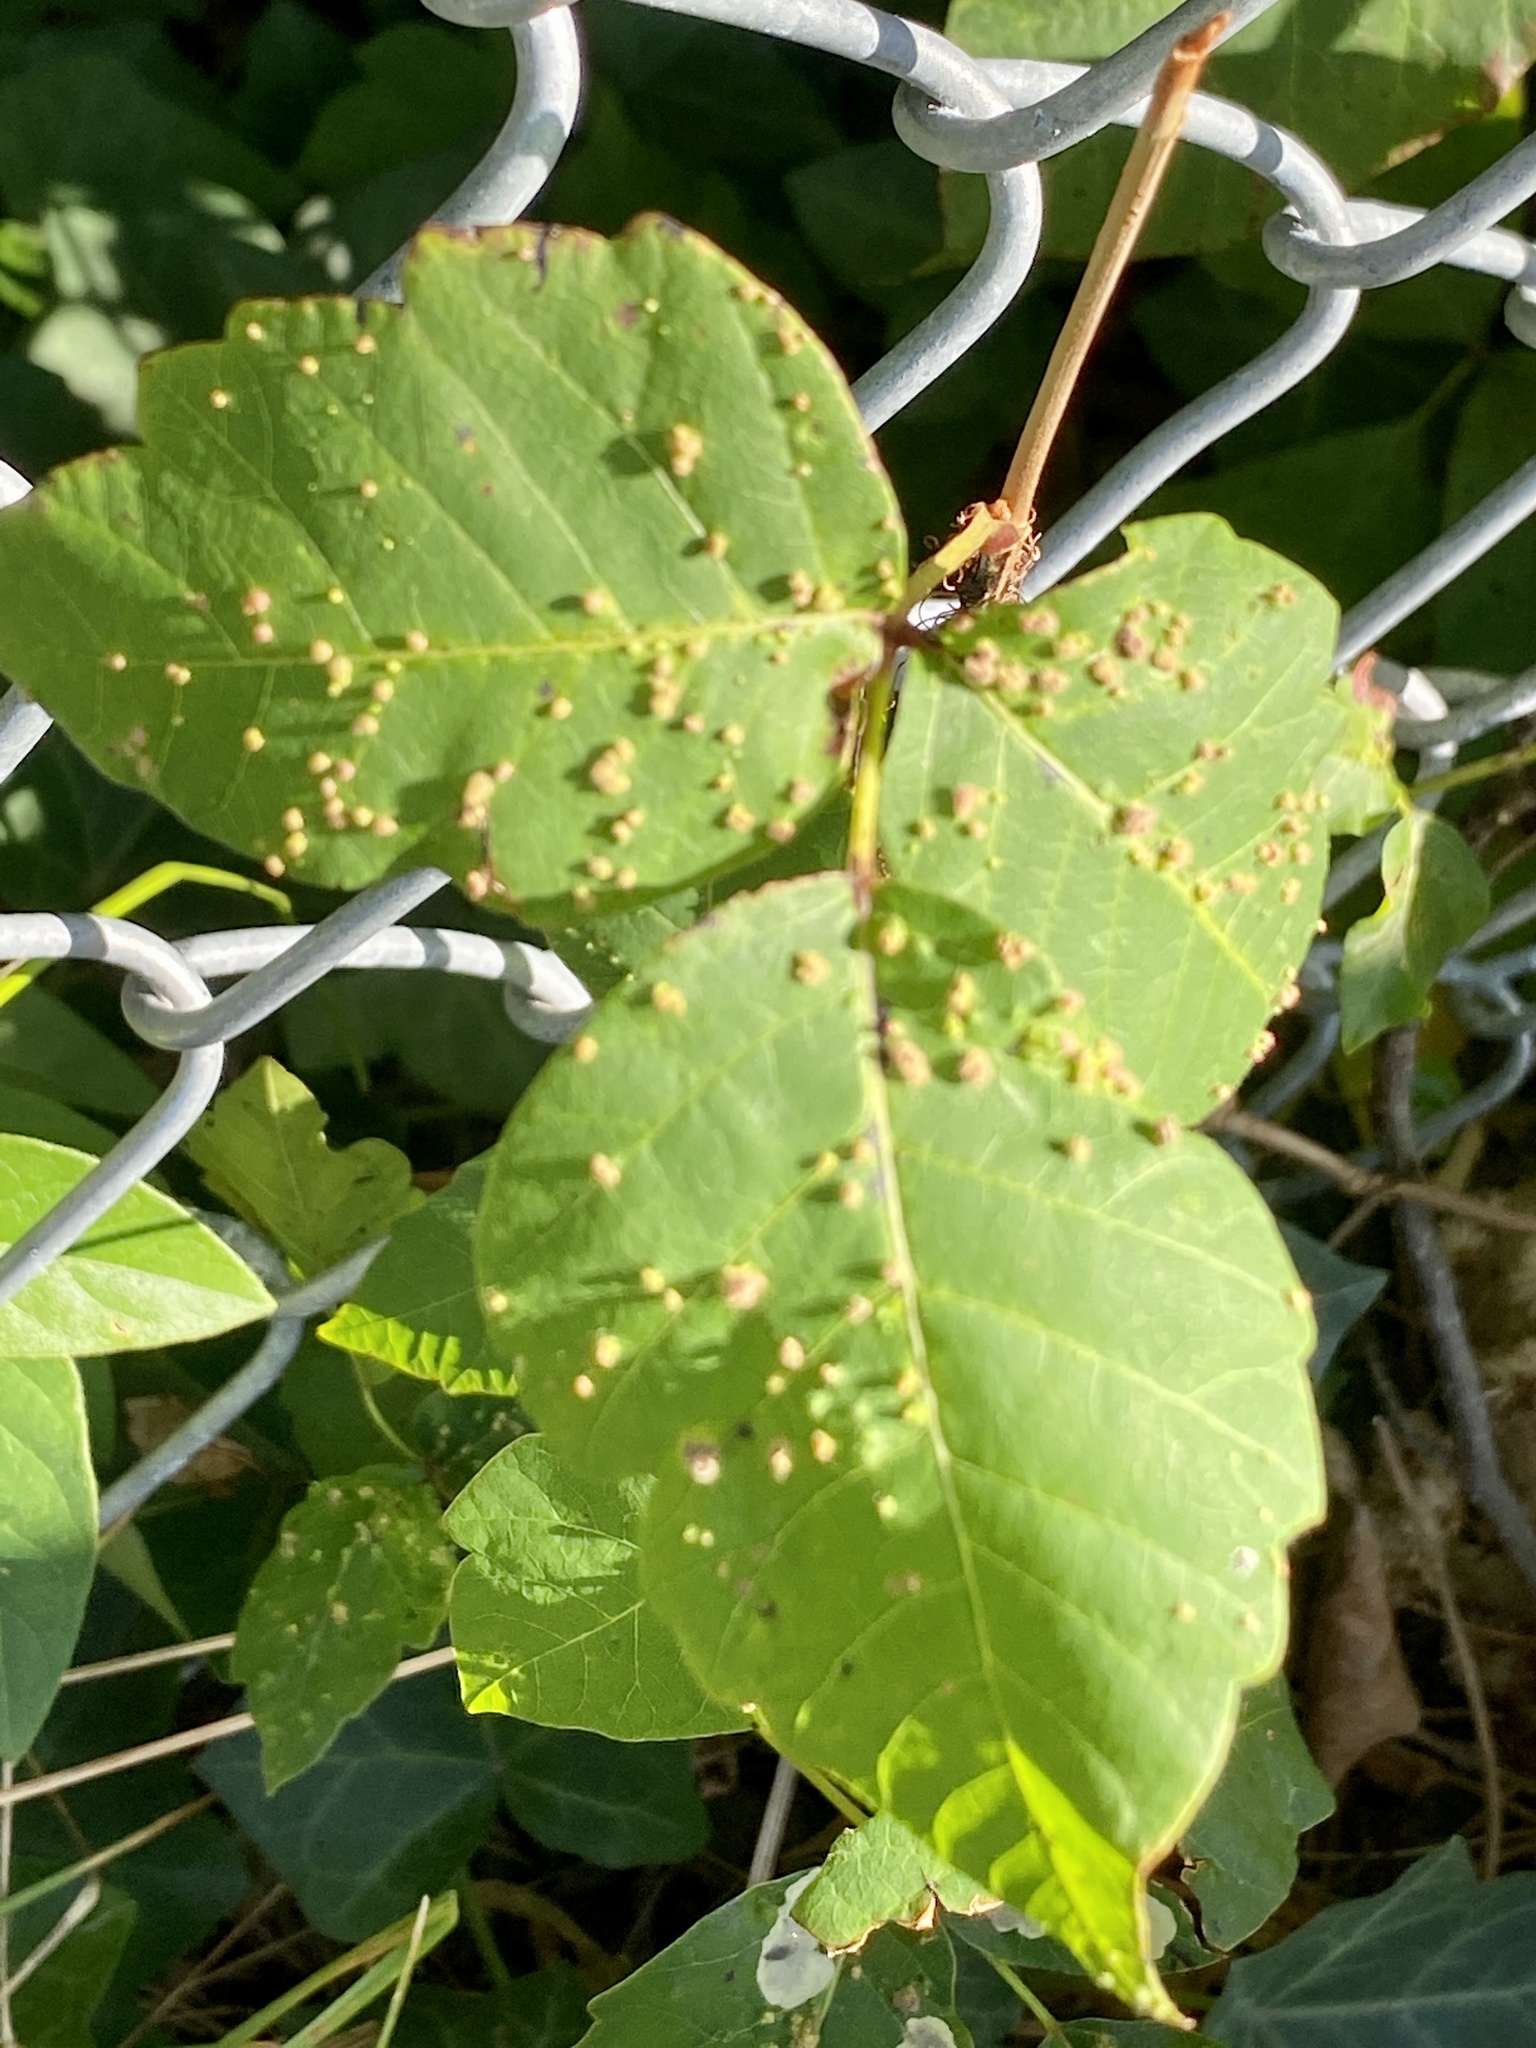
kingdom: Animalia
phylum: Arthropoda
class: Arachnida
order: Trombidiformes
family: Eriophyidae
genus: Aculops
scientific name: Aculops
